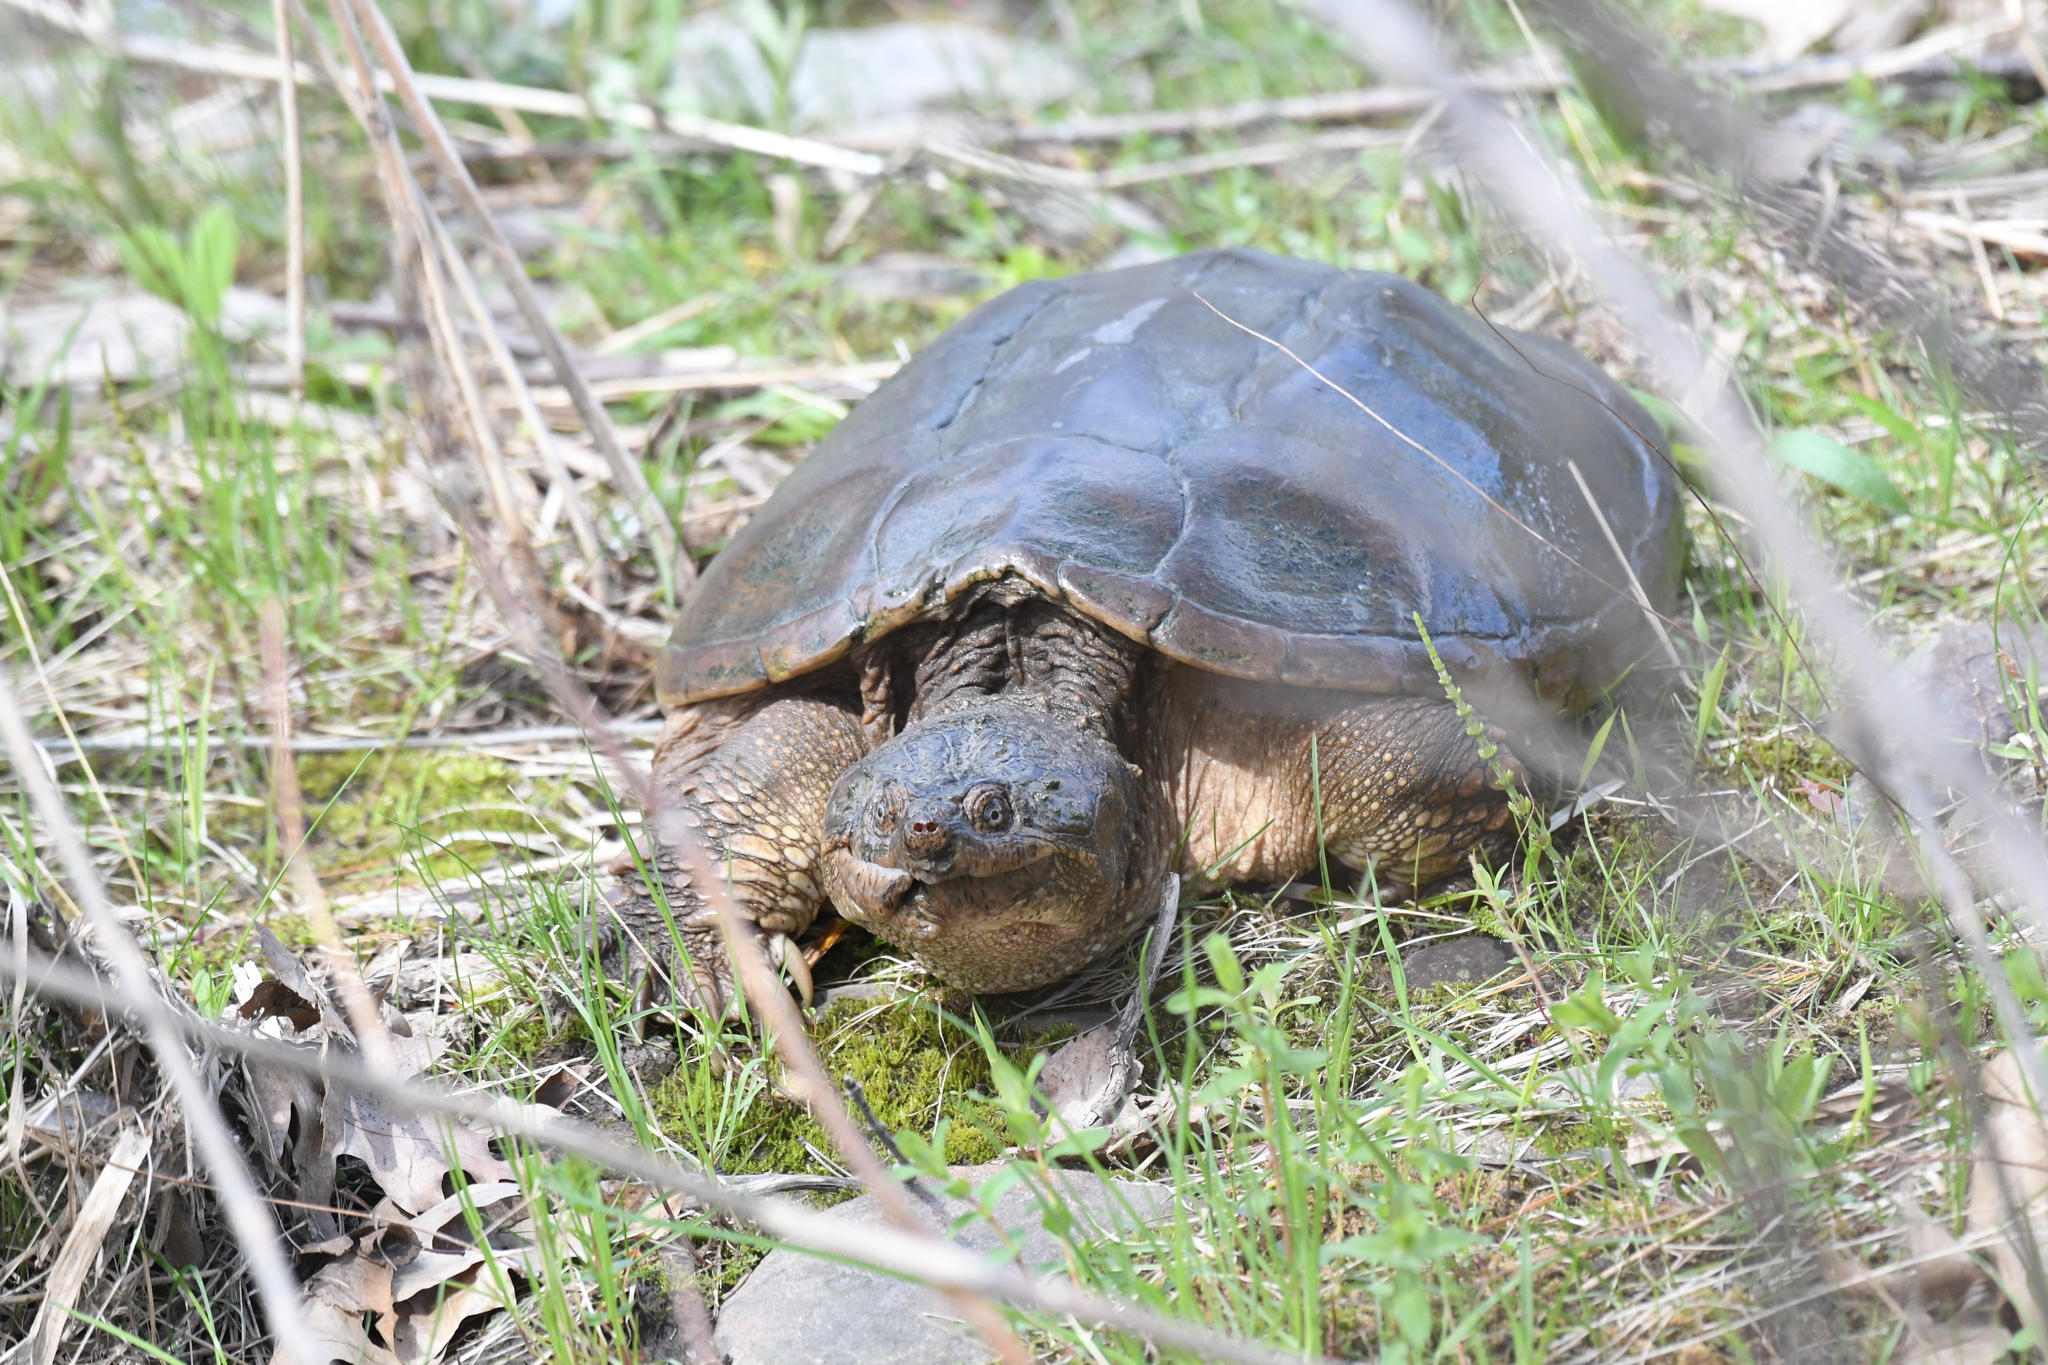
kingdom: Animalia
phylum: Chordata
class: Testudines
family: Chelydridae
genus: Chelydra
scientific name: Chelydra serpentina
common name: Common snapping turtle
